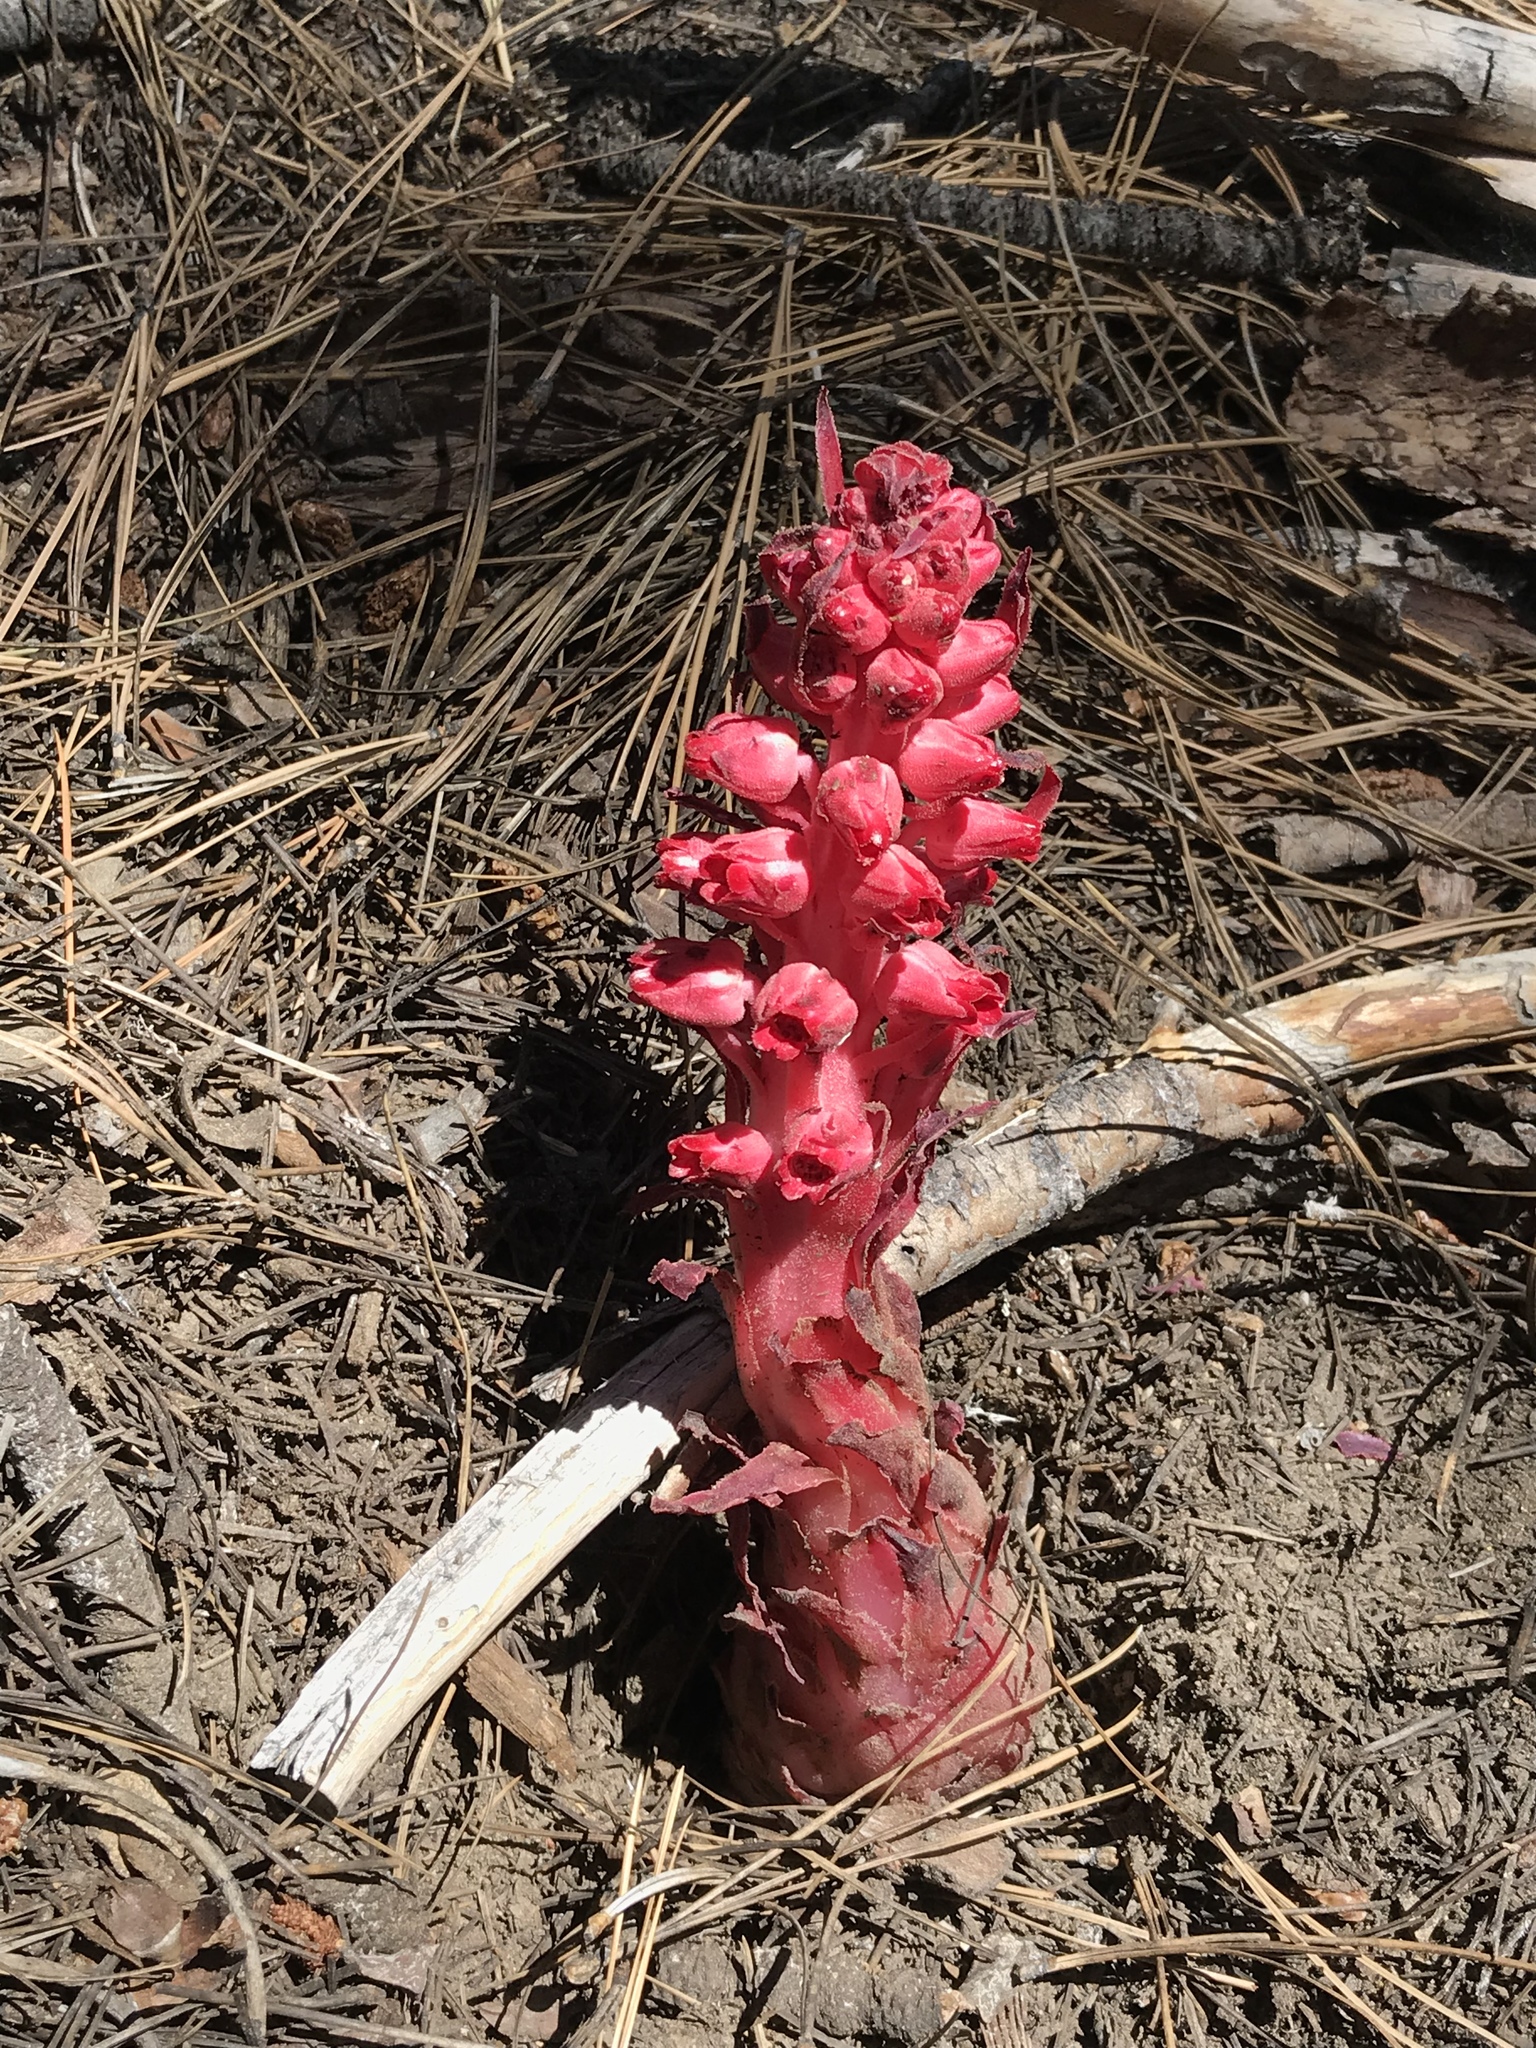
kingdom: Plantae
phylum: Tracheophyta
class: Magnoliopsida
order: Ericales
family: Ericaceae
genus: Sarcodes
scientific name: Sarcodes sanguinea
